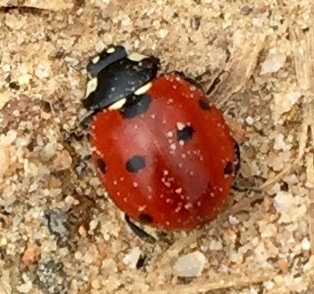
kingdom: Animalia
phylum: Arthropoda
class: Insecta
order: Coleoptera
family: Coccinellidae
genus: Coccinella
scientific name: Coccinella septempunctata
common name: Sevenspotted lady beetle
